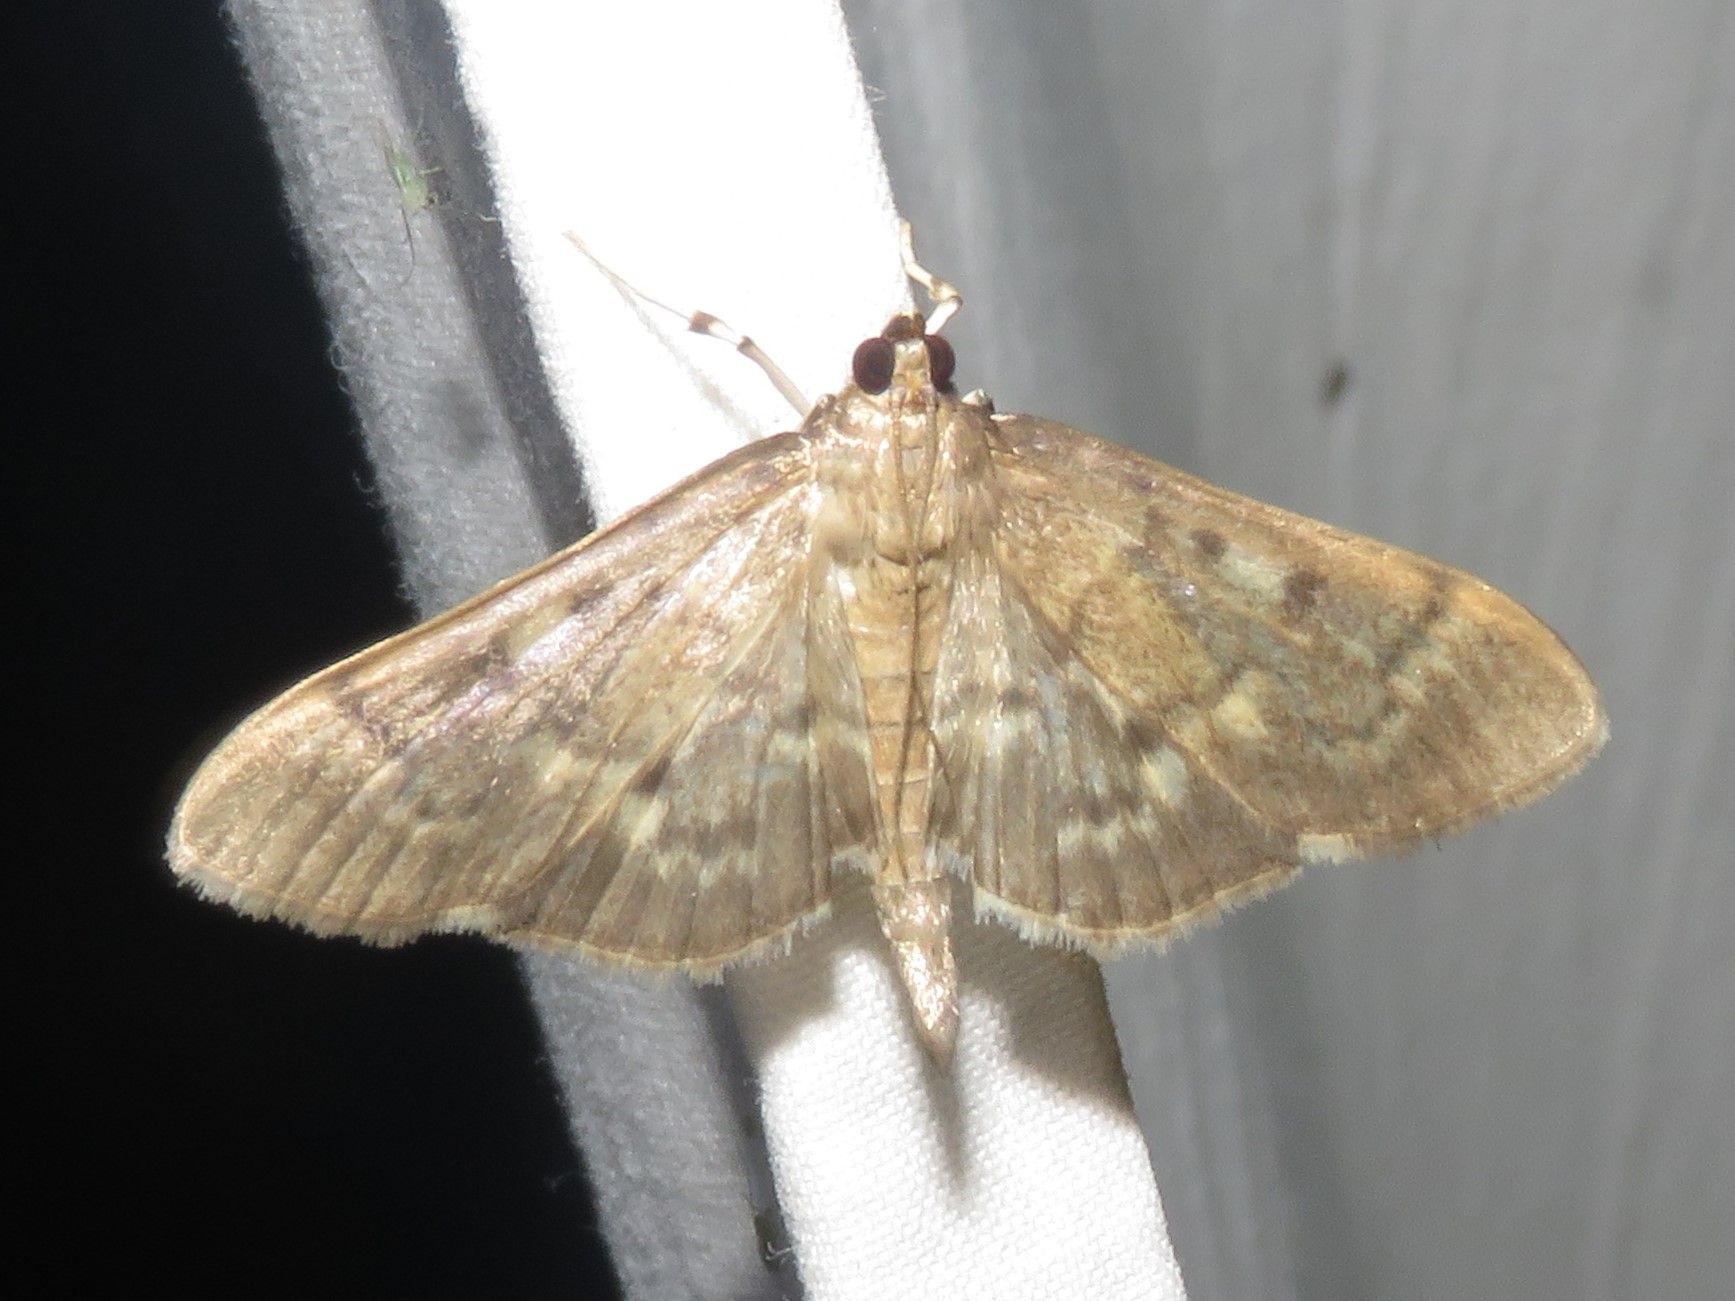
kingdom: Animalia
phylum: Arthropoda
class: Insecta
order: Lepidoptera
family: Crambidae
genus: Herpetogramma
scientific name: Herpetogramma aeglealis
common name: Serpentine webworm moth
